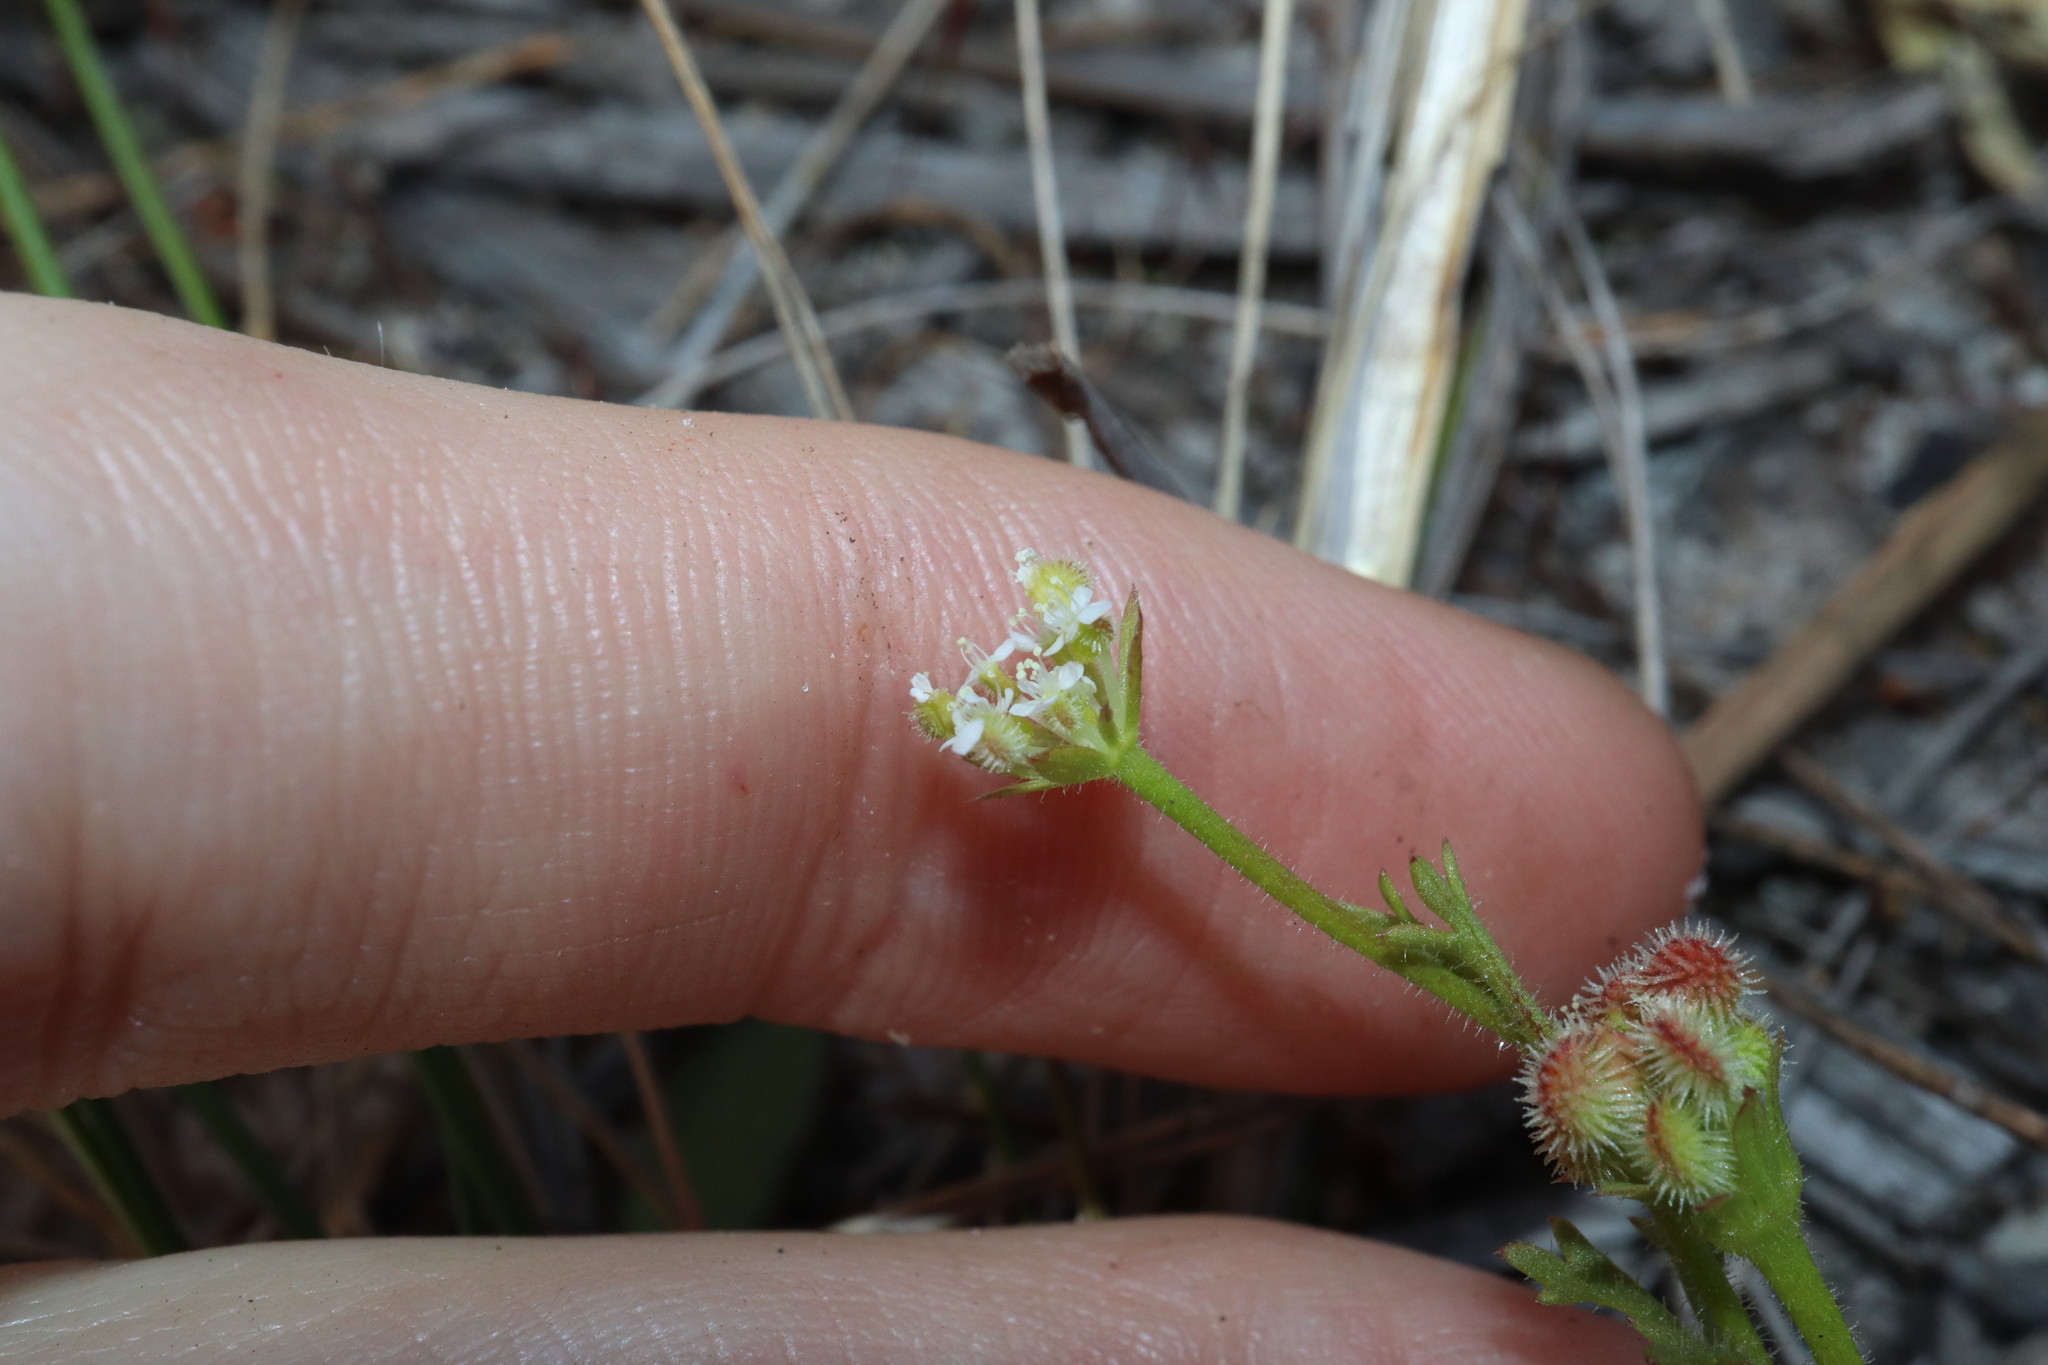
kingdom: Plantae
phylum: Tracheophyta
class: Magnoliopsida
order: Apiales
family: Araliaceae
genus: Trachymene
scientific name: Trachymene pilosa
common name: Dwarf trachymene
